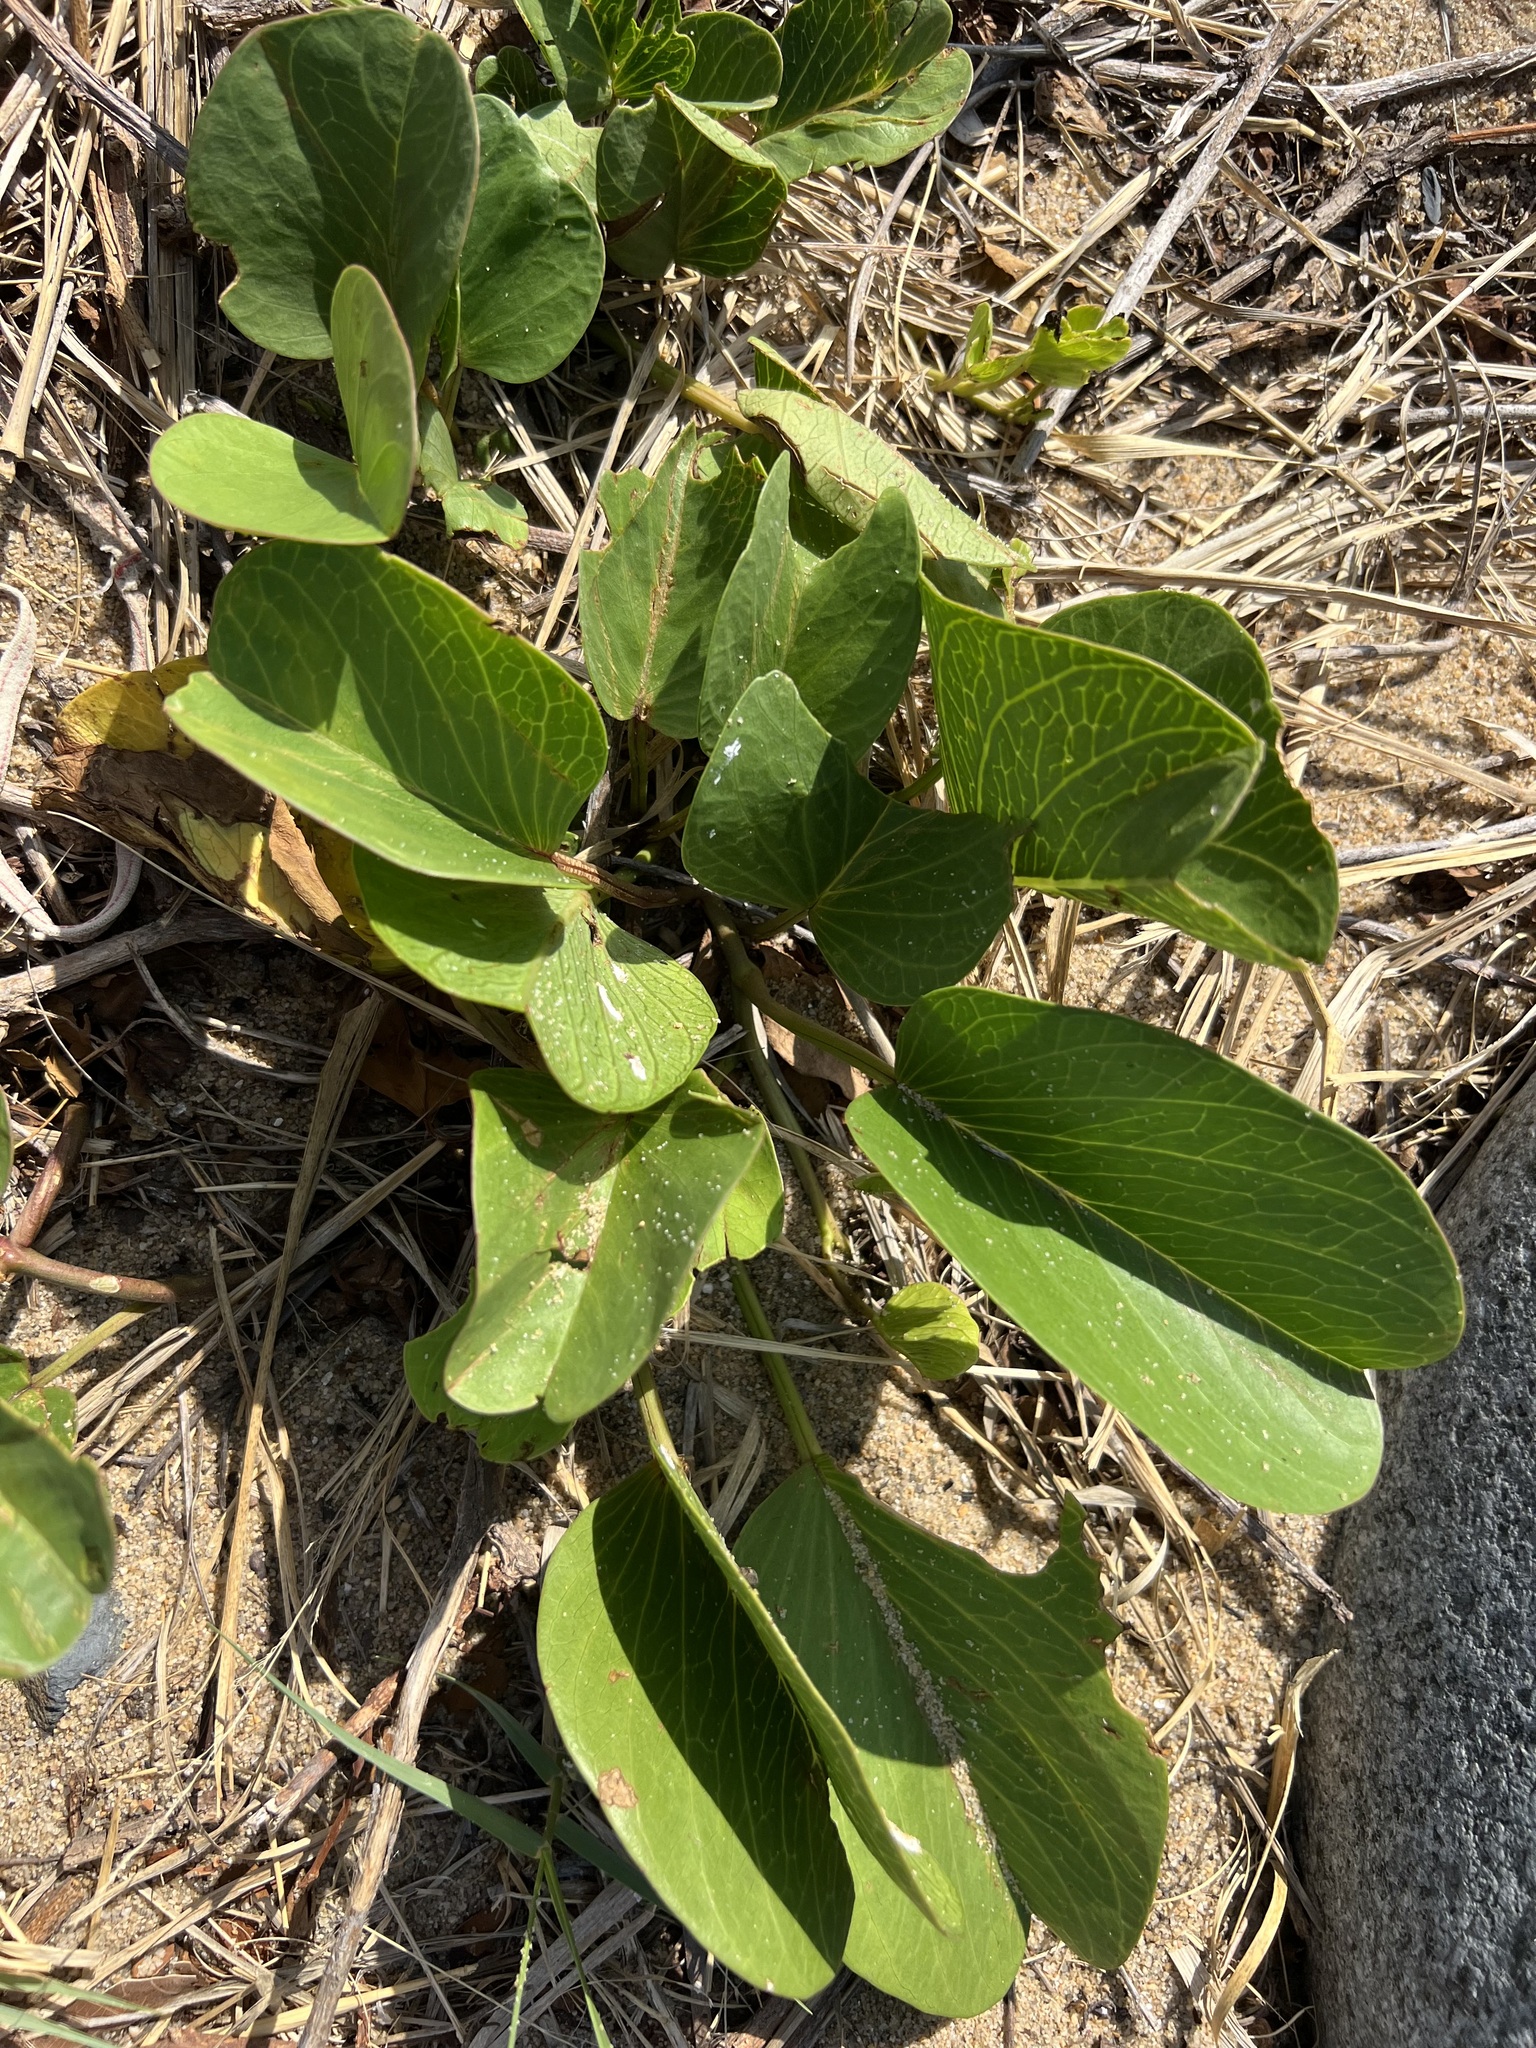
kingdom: Plantae
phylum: Tracheophyta
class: Magnoliopsida
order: Solanales
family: Convolvulaceae
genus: Ipomoea
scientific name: Ipomoea pes-caprae
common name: Beach morning glory
